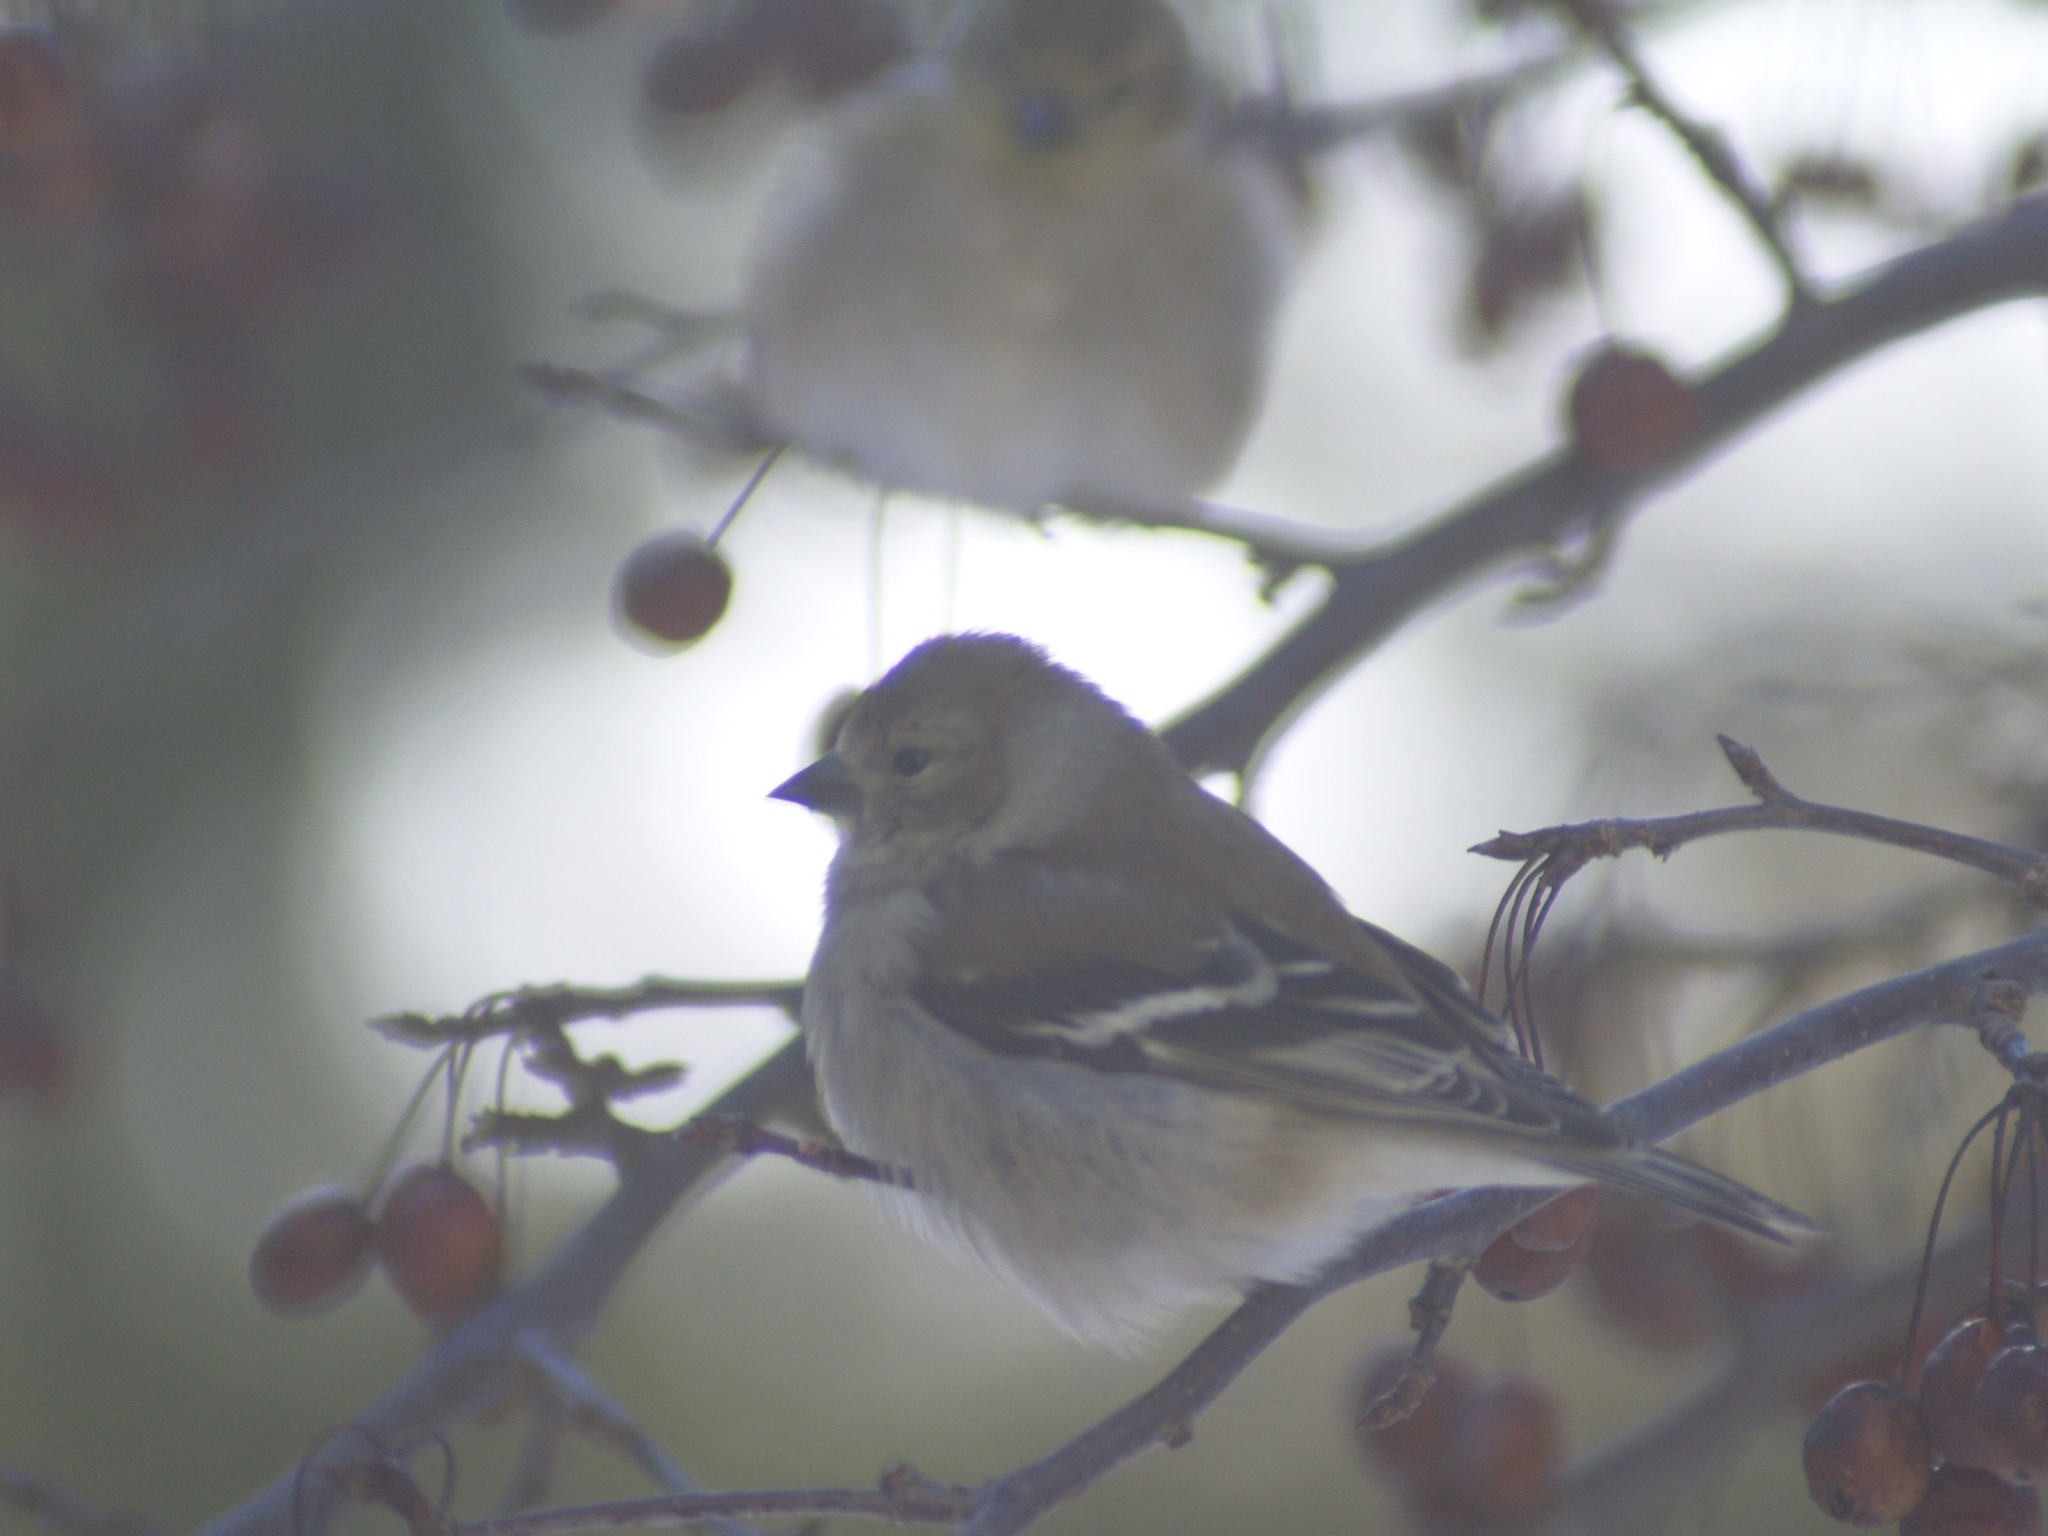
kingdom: Animalia
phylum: Chordata
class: Aves
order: Passeriformes
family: Fringillidae
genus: Spinus
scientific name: Spinus tristis
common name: American goldfinch
